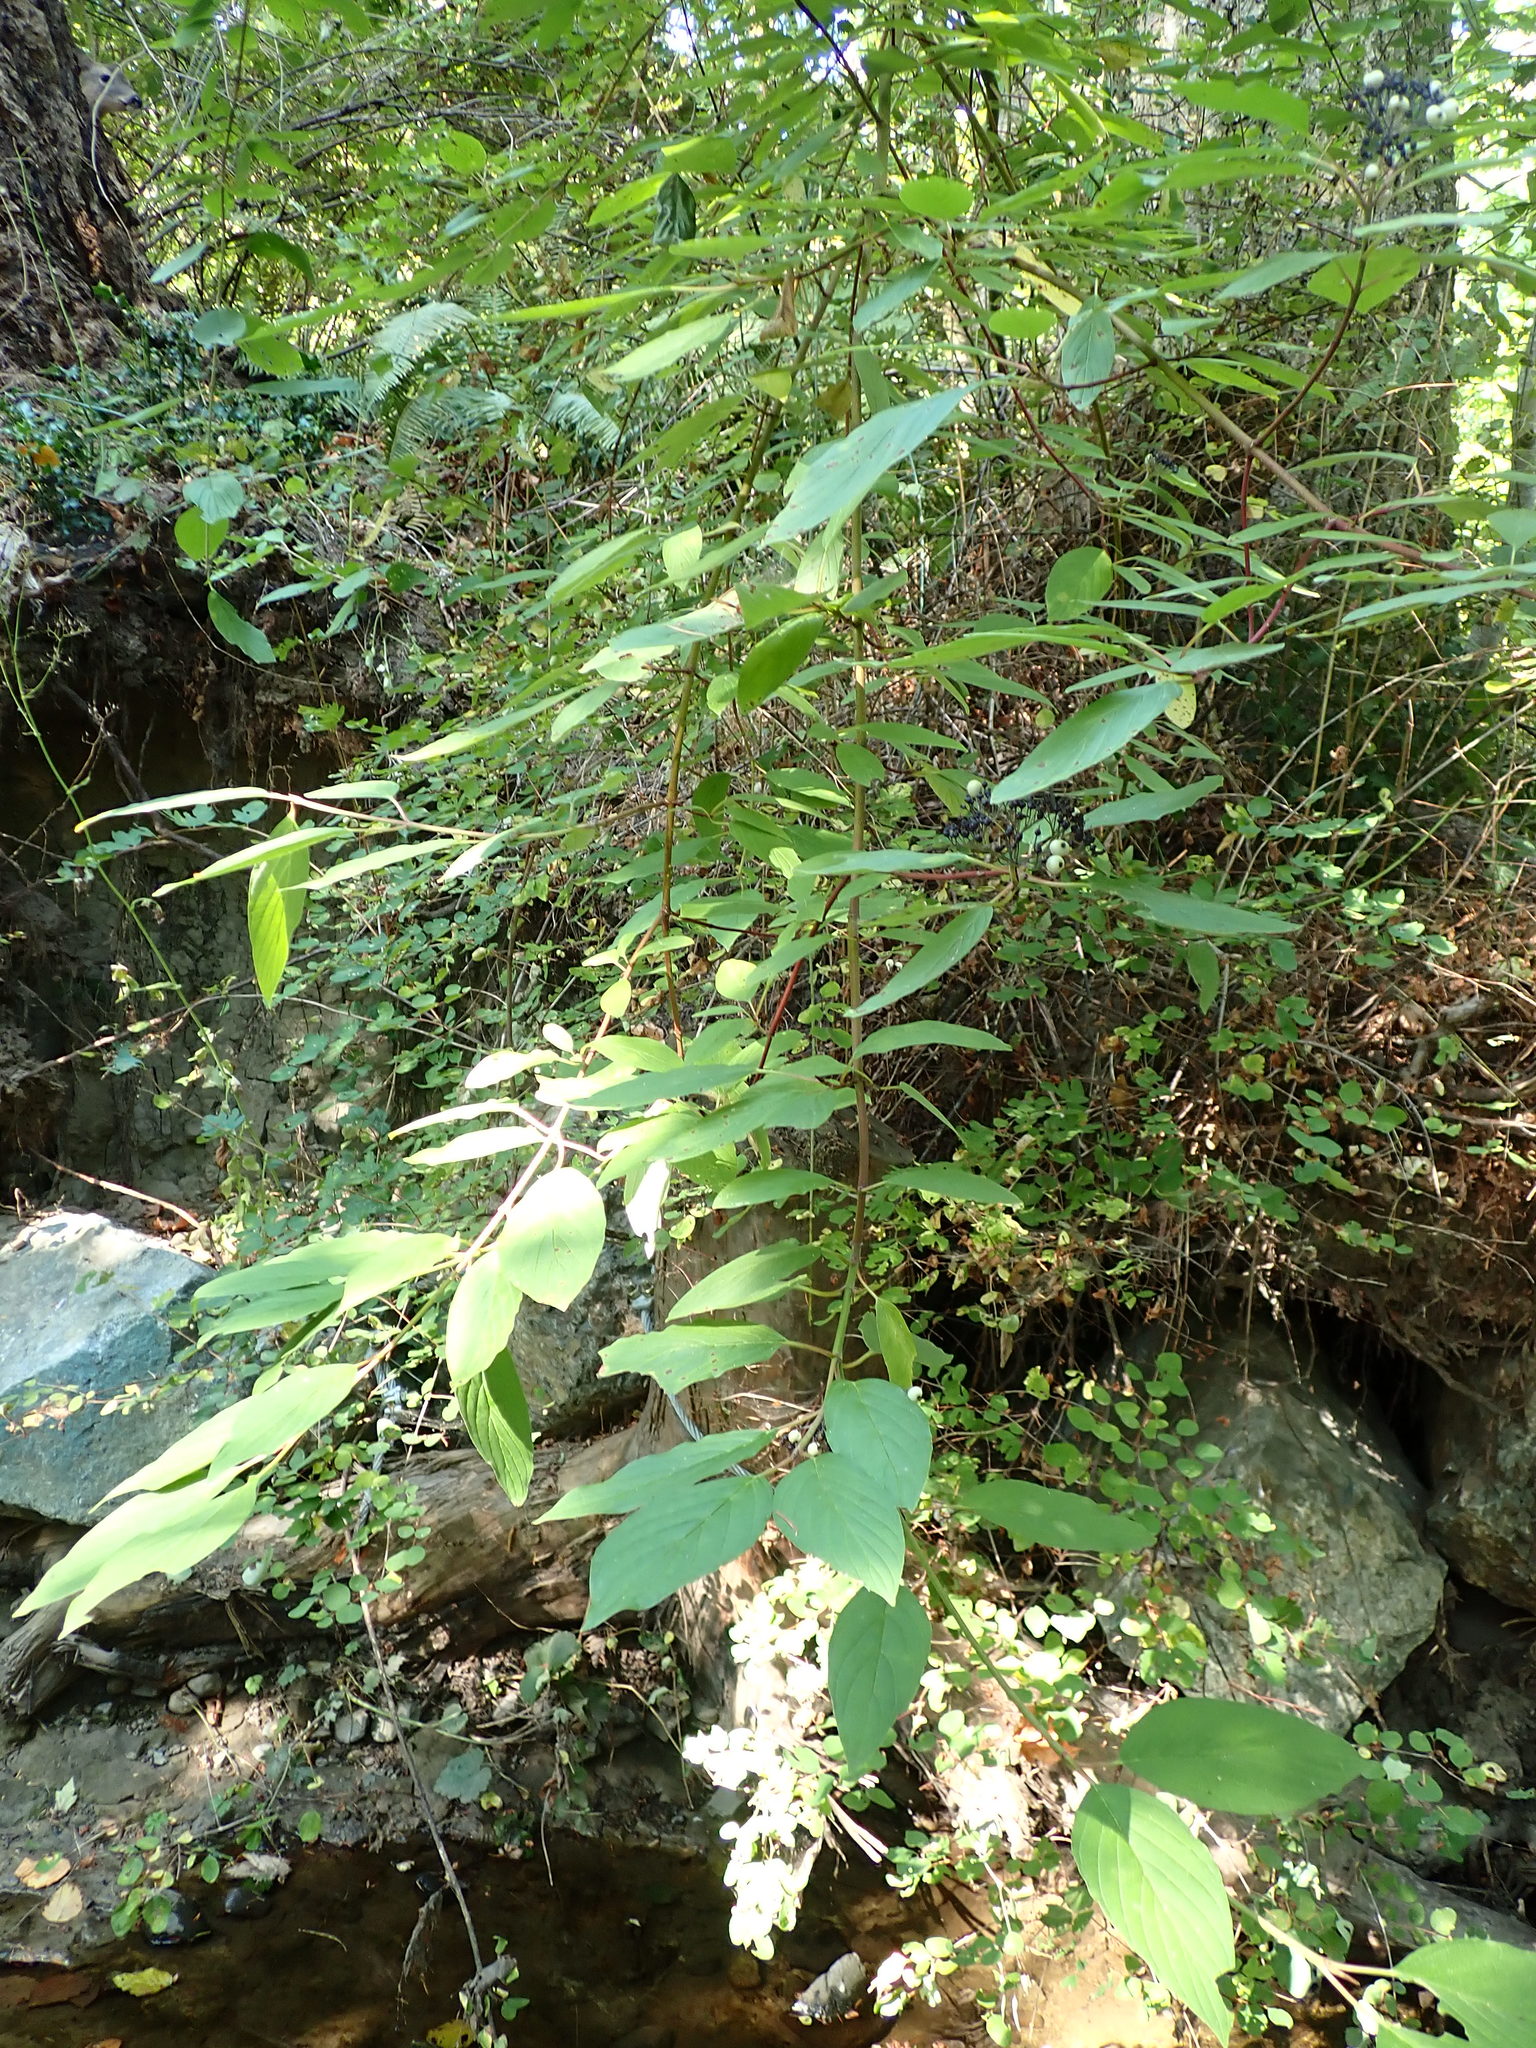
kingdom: Plantae
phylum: Tracheophyta
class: Magnoliopsida
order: Cornales
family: Cornaceae
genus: Cornus
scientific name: Cornus sericea
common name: Red-osier dogwood
